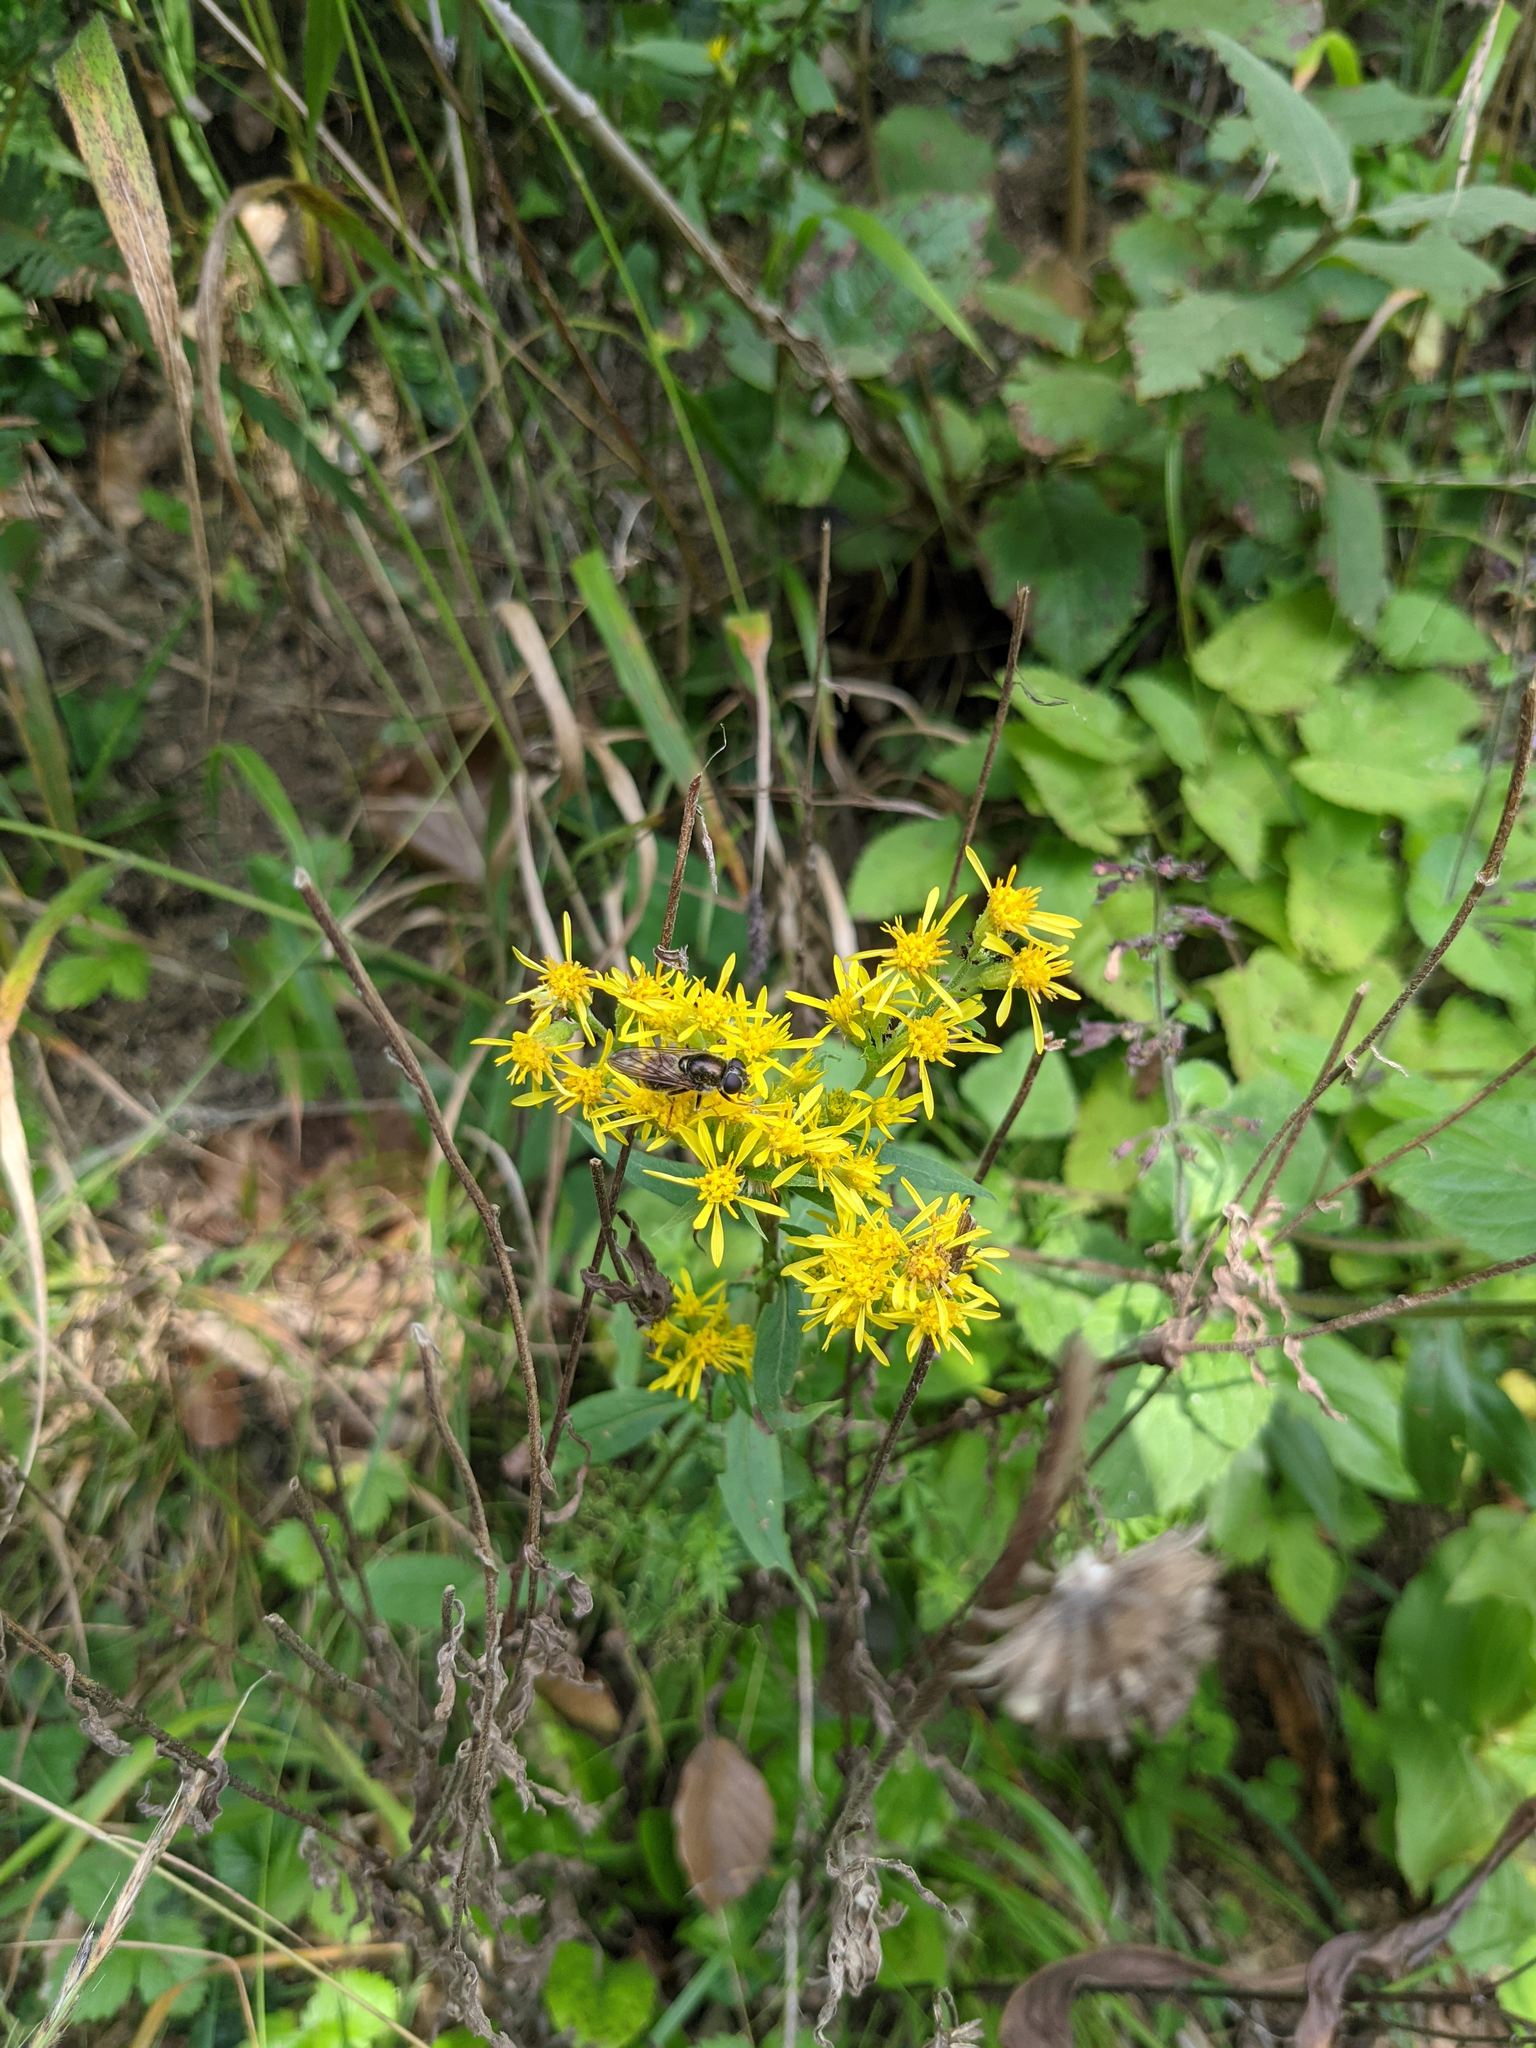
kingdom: Plantae
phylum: Tracheophyta
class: Magnoliopsida
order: Asterales
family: Asteraceae
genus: Solidago
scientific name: Solidago virgaurea
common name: Goldenrod
